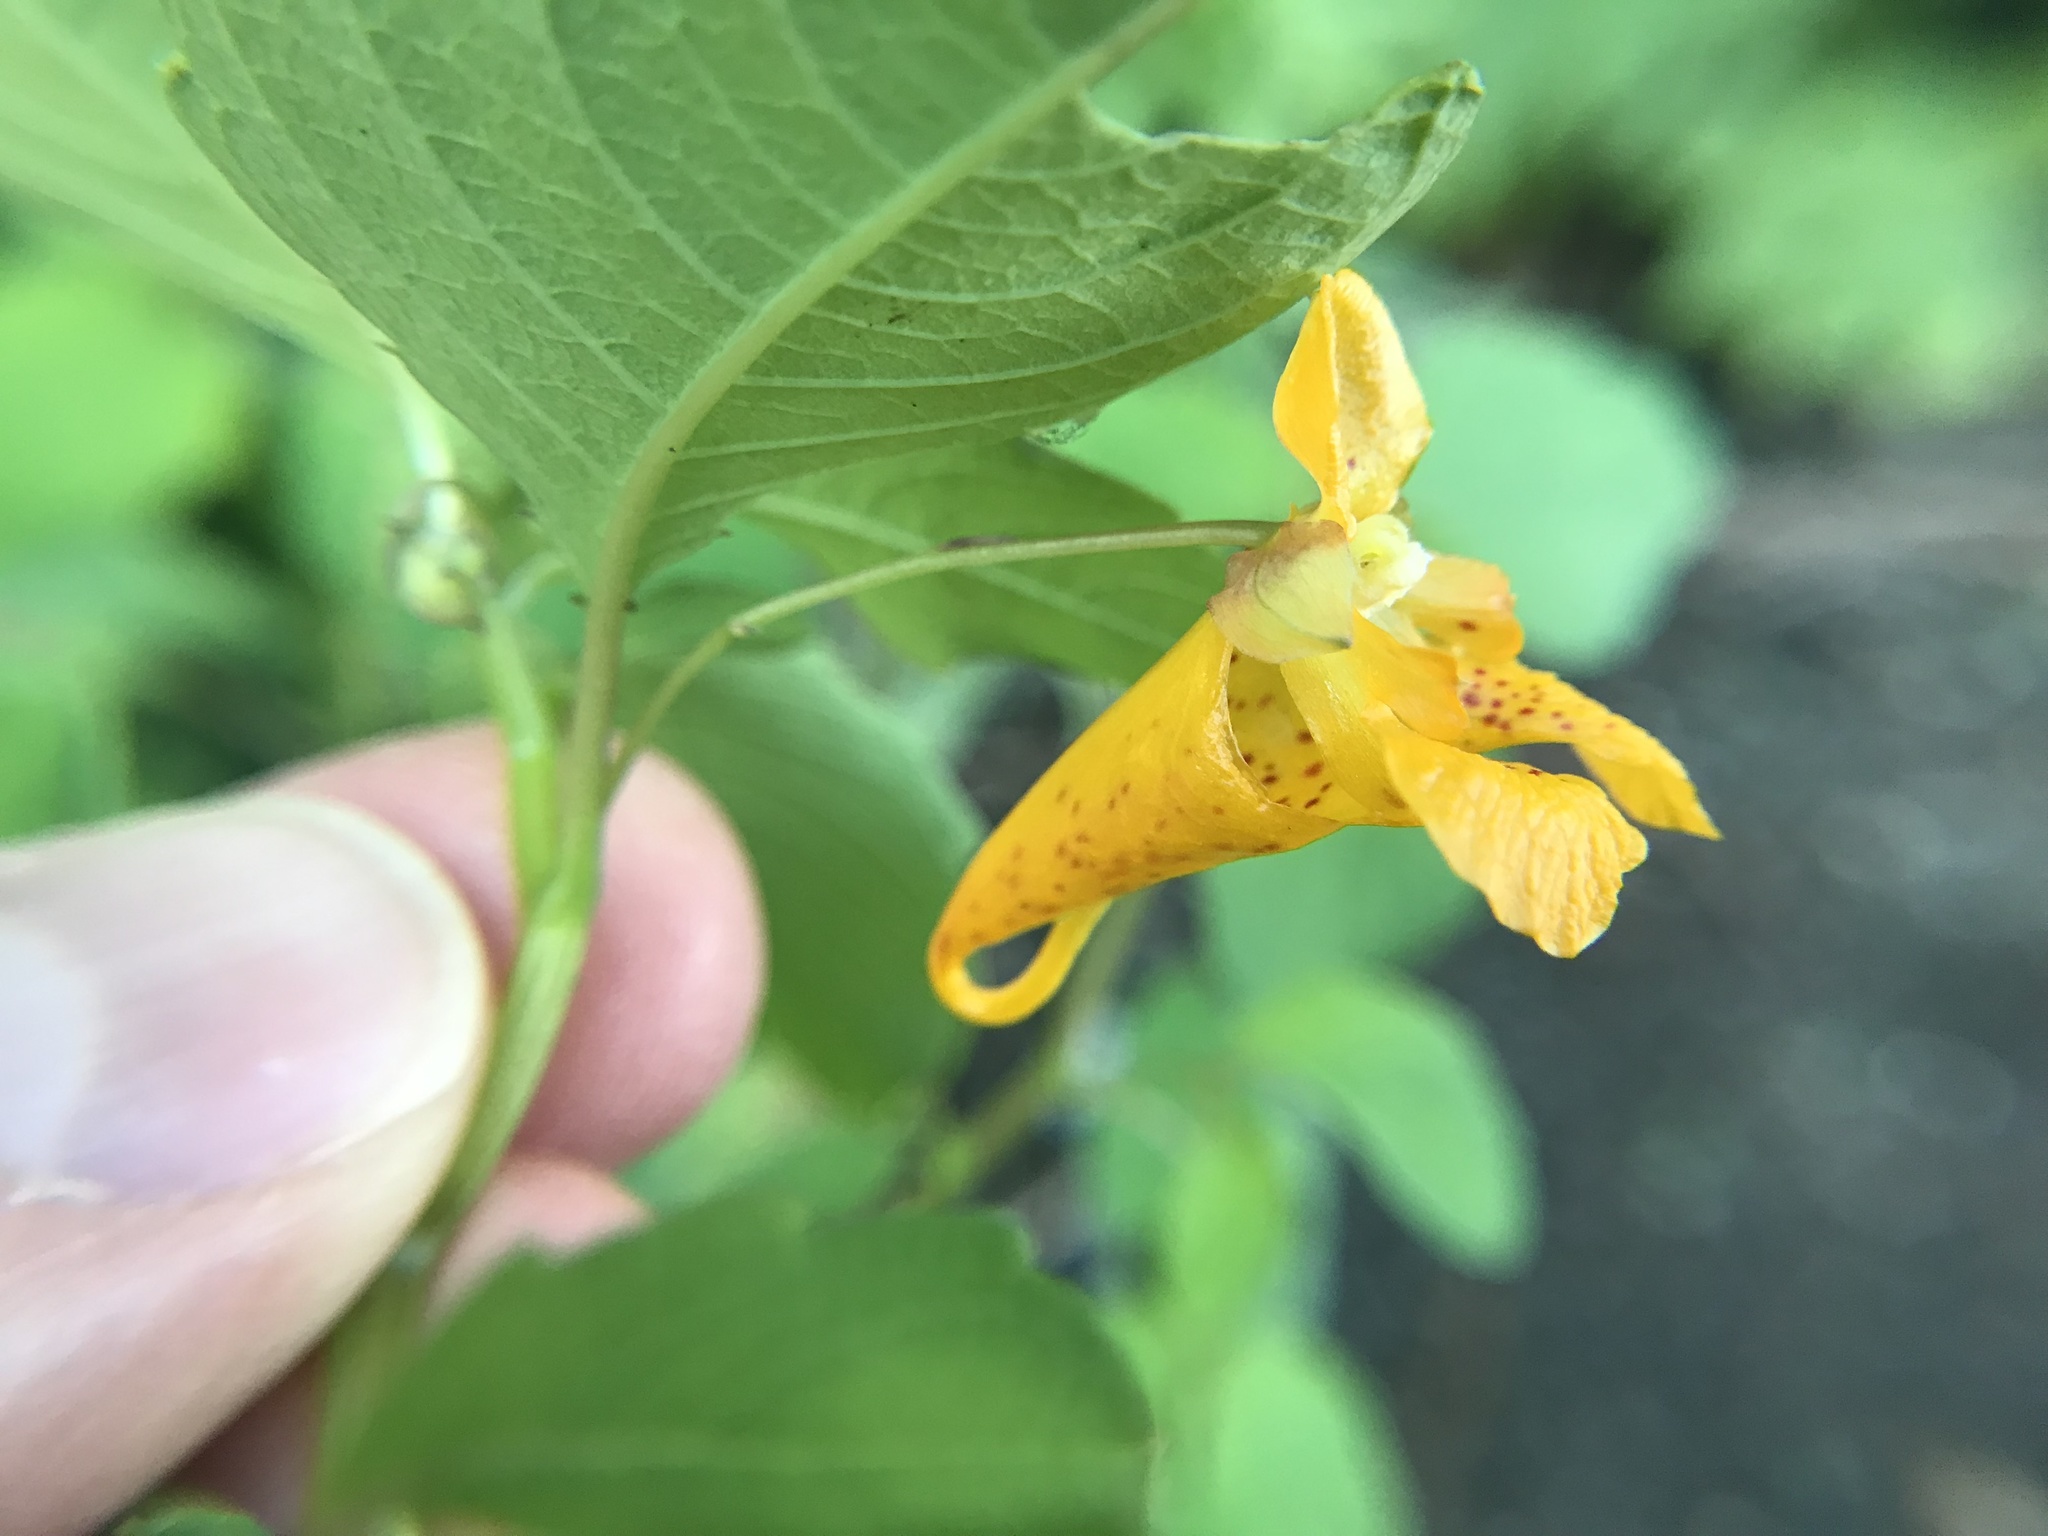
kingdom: Plantae
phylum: Tracheophyta
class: Magnoliopsida
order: Ericales
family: Balsaminaceae
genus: Impatiens
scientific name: Impatiens capensis
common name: Orange balsam
